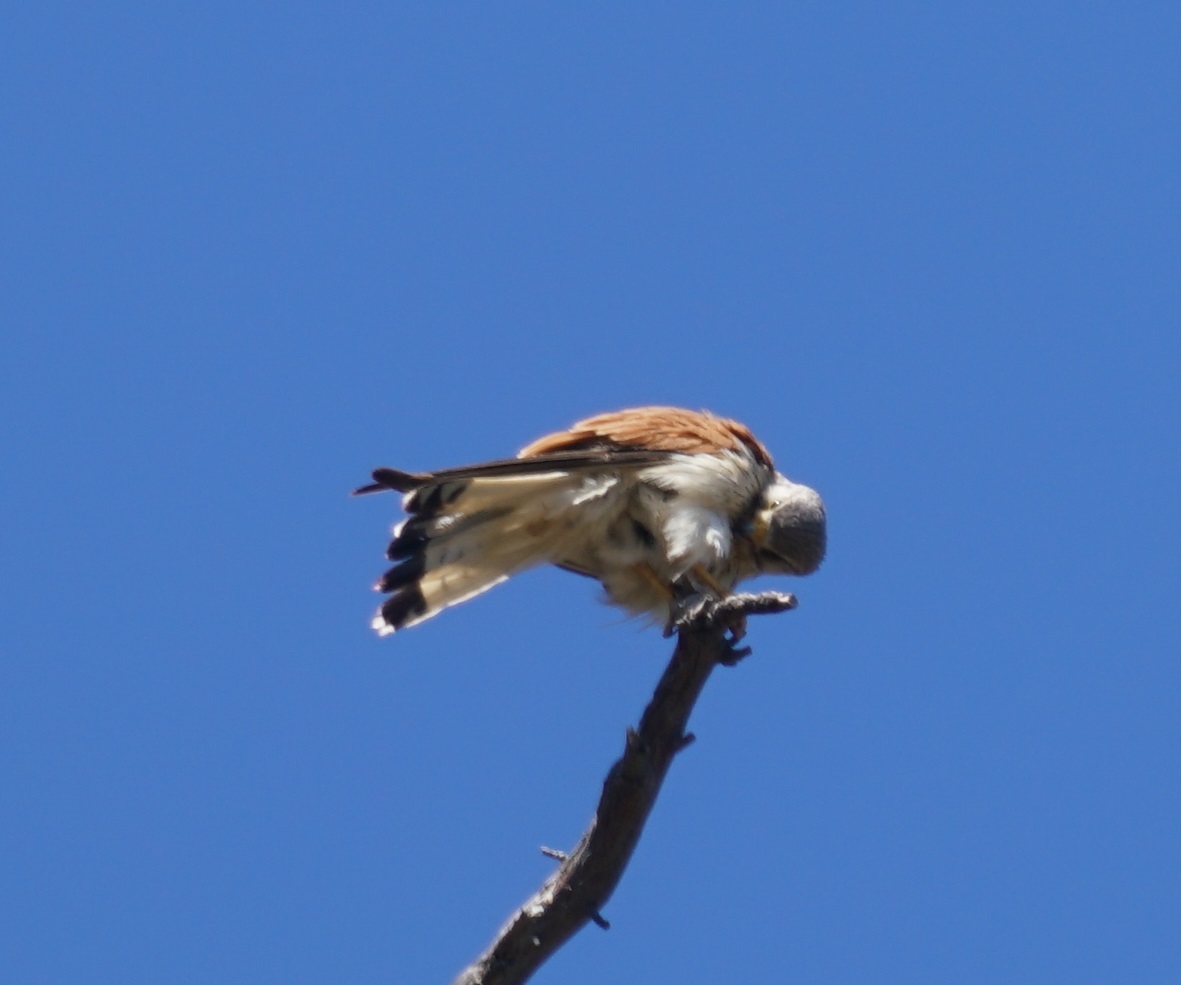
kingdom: Animalia
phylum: Chordata
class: Aves
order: Falconiformes
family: Falconidae
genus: Falco
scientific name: Falco cenchroides
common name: Nankeen kestrel
